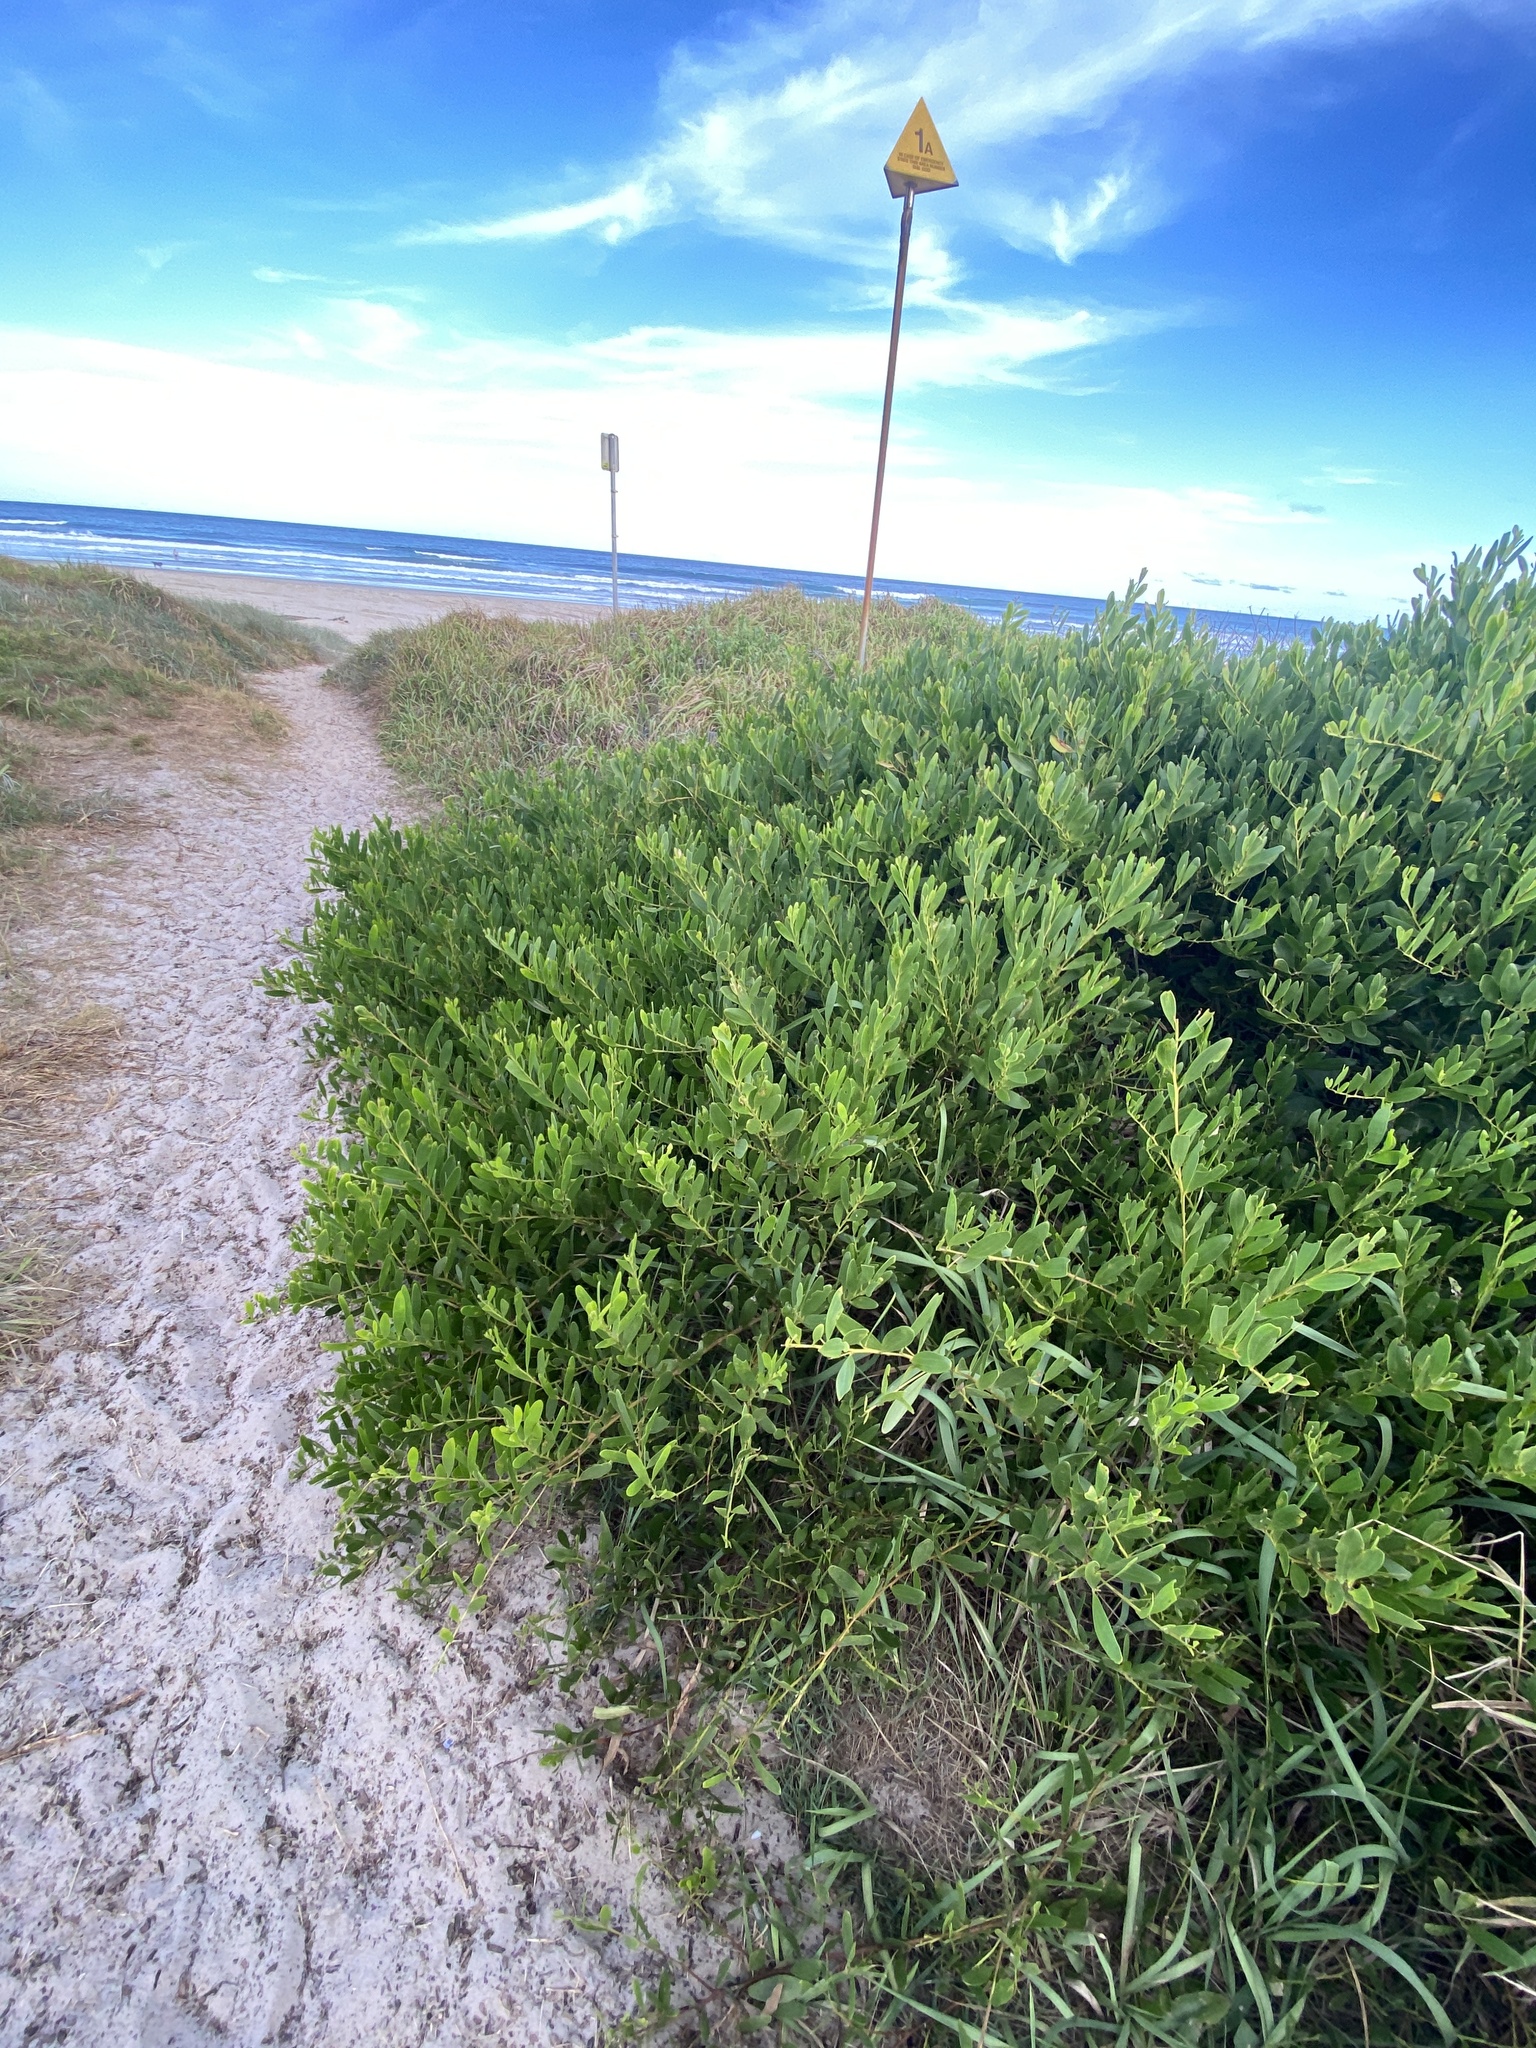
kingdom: Plantae
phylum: Tracheophyta
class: Magnoliopsida
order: Fabales
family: Fabaceae
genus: Acacia
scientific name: Acacia longifolia
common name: Sydney golden wattle
